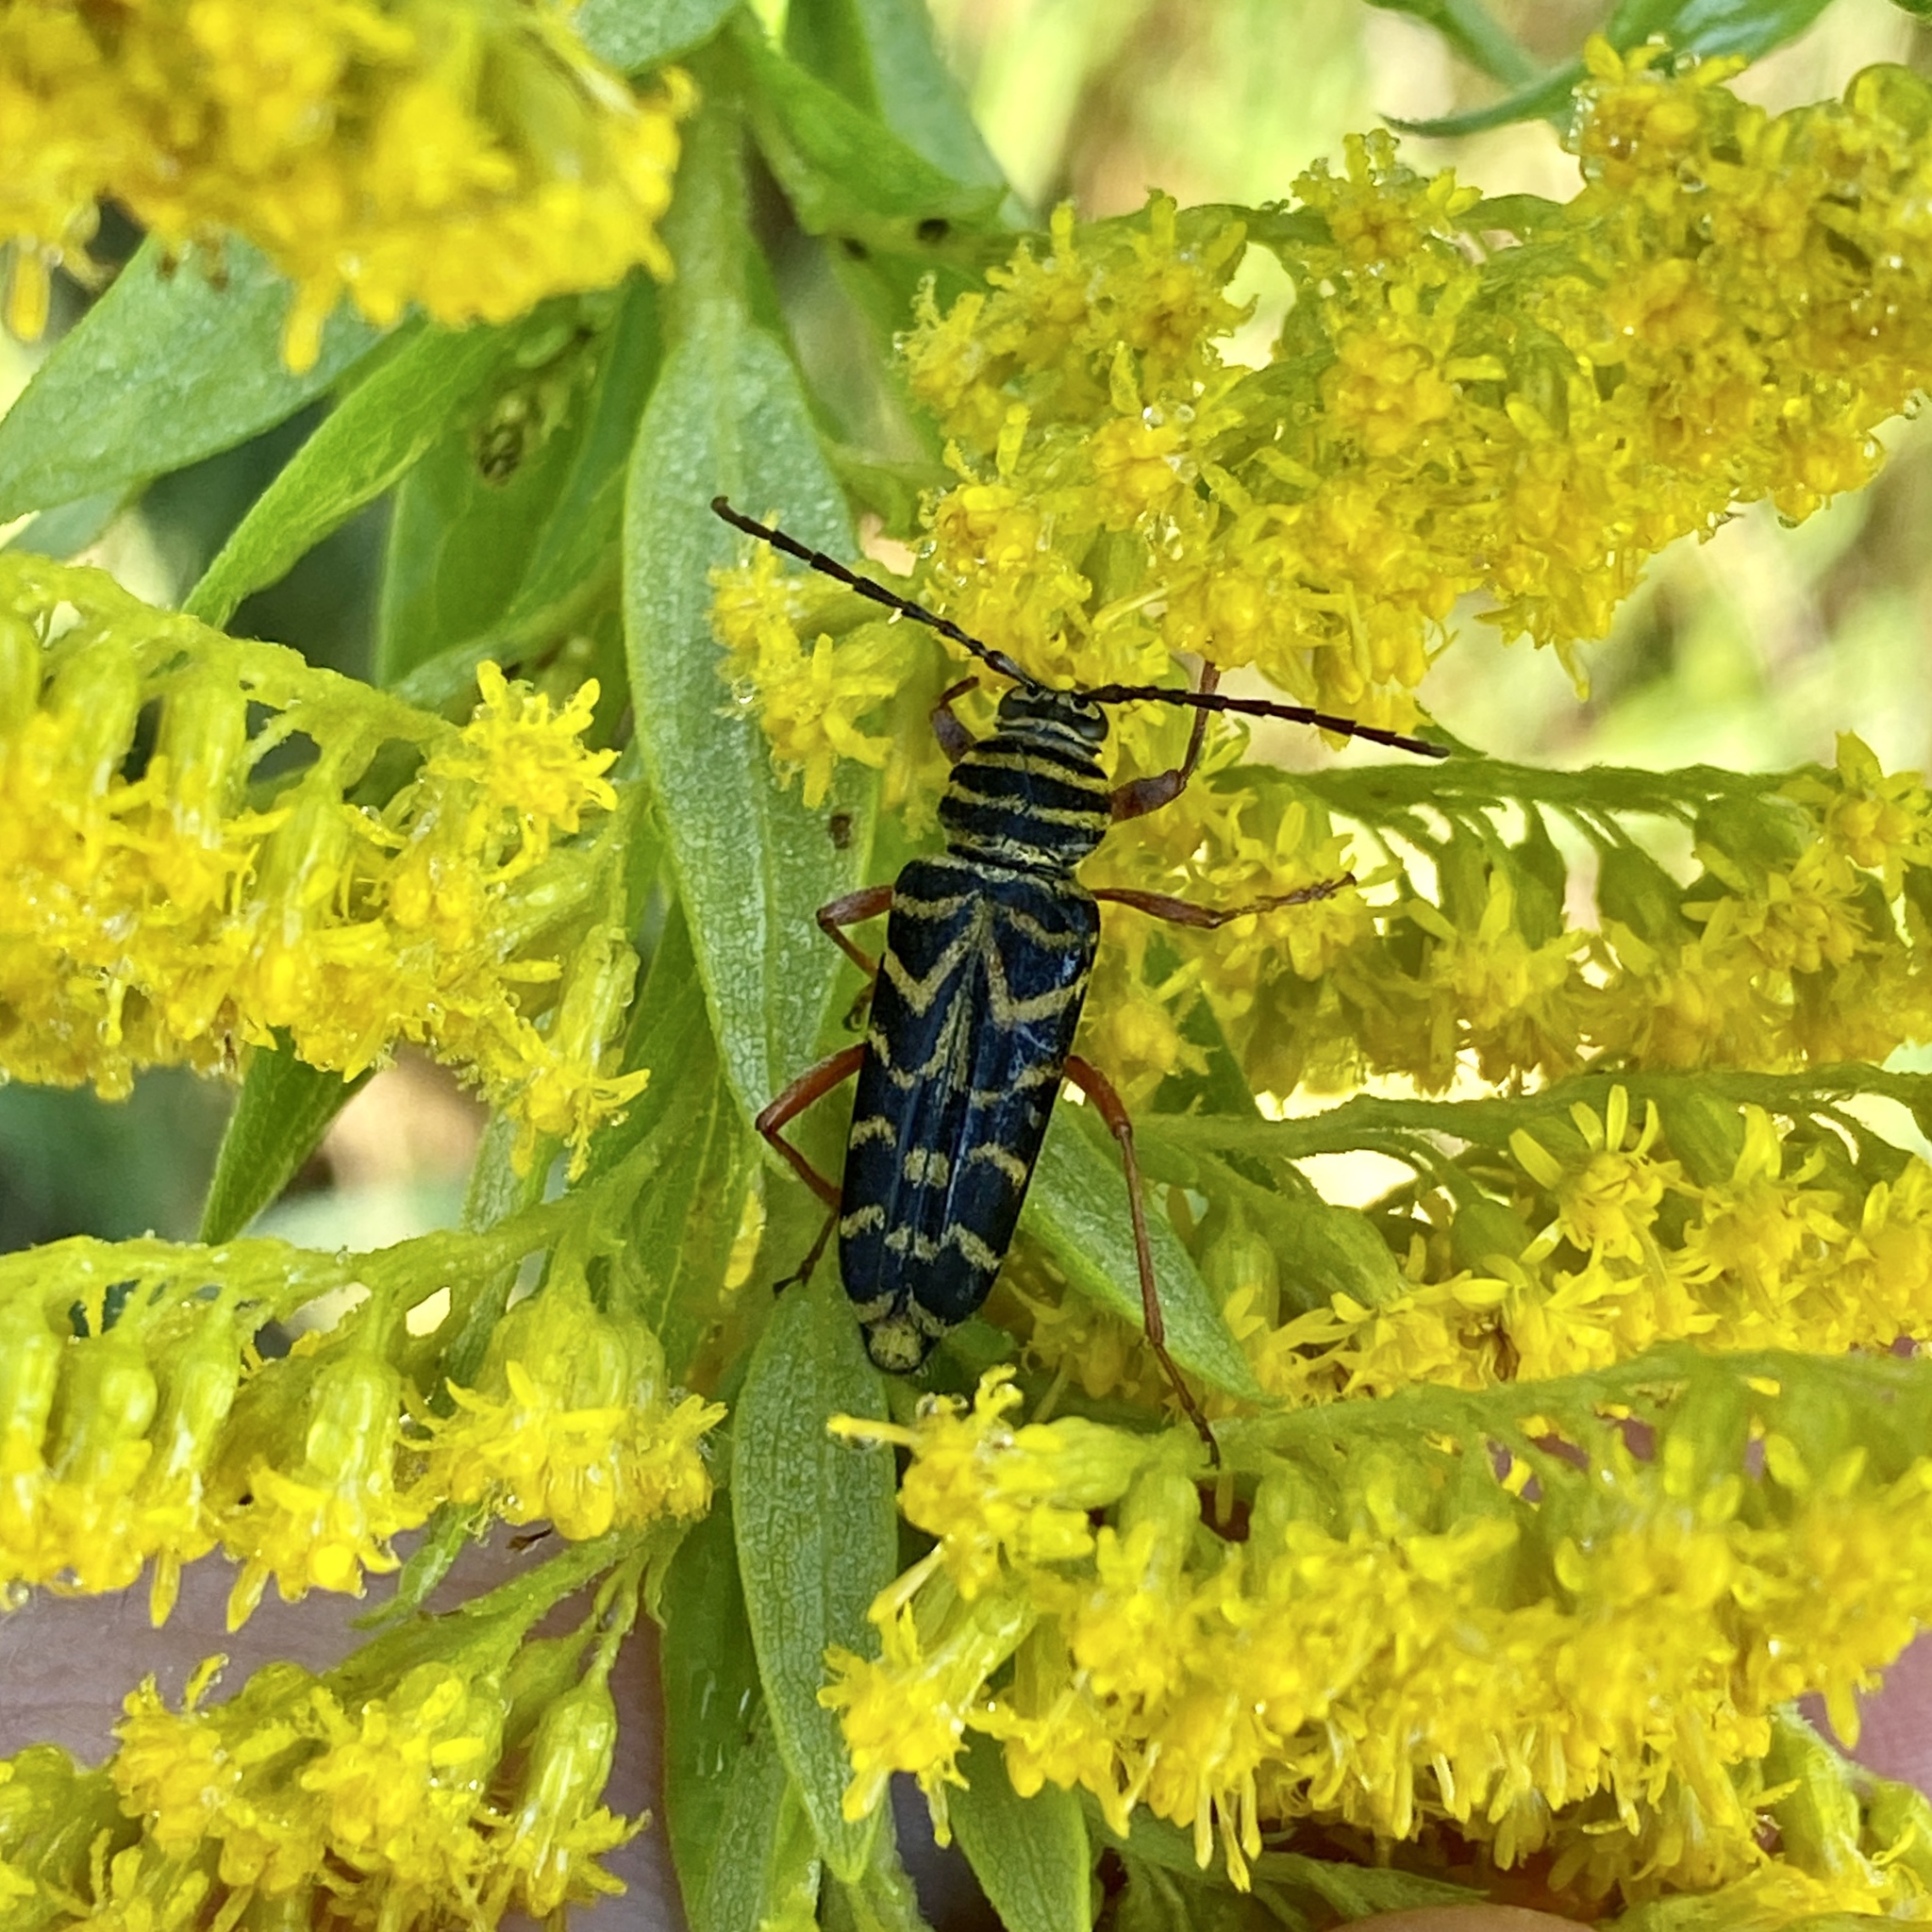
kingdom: Animalia
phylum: Arthropoda
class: Insecta
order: Coleoptera
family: Cerambycidae
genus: Megacyllene
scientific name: Megacyllene robiniae
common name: Locust borer
